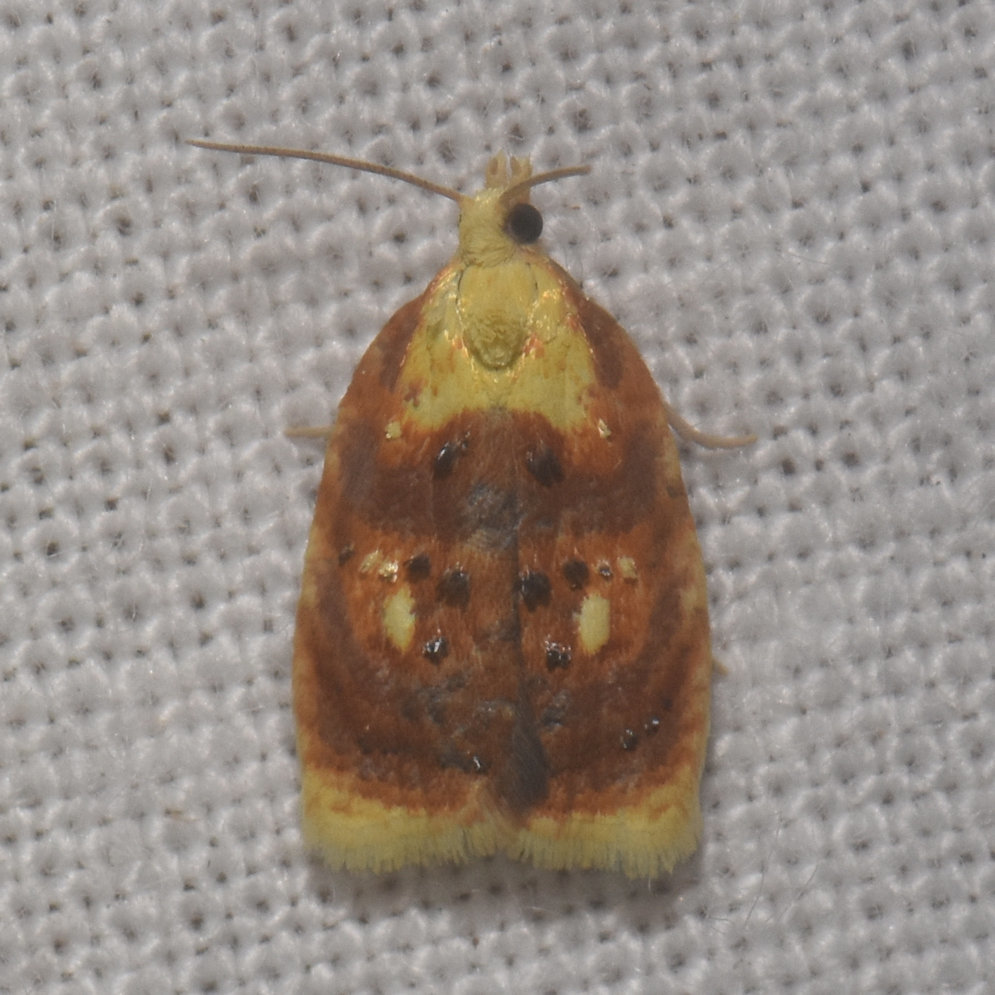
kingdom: Animalia
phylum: Arthropoda
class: Insecta
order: Lepidoptera
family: Tortricidae
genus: Acleris
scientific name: Acleris curvalana
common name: Blueberry leaftier moth
